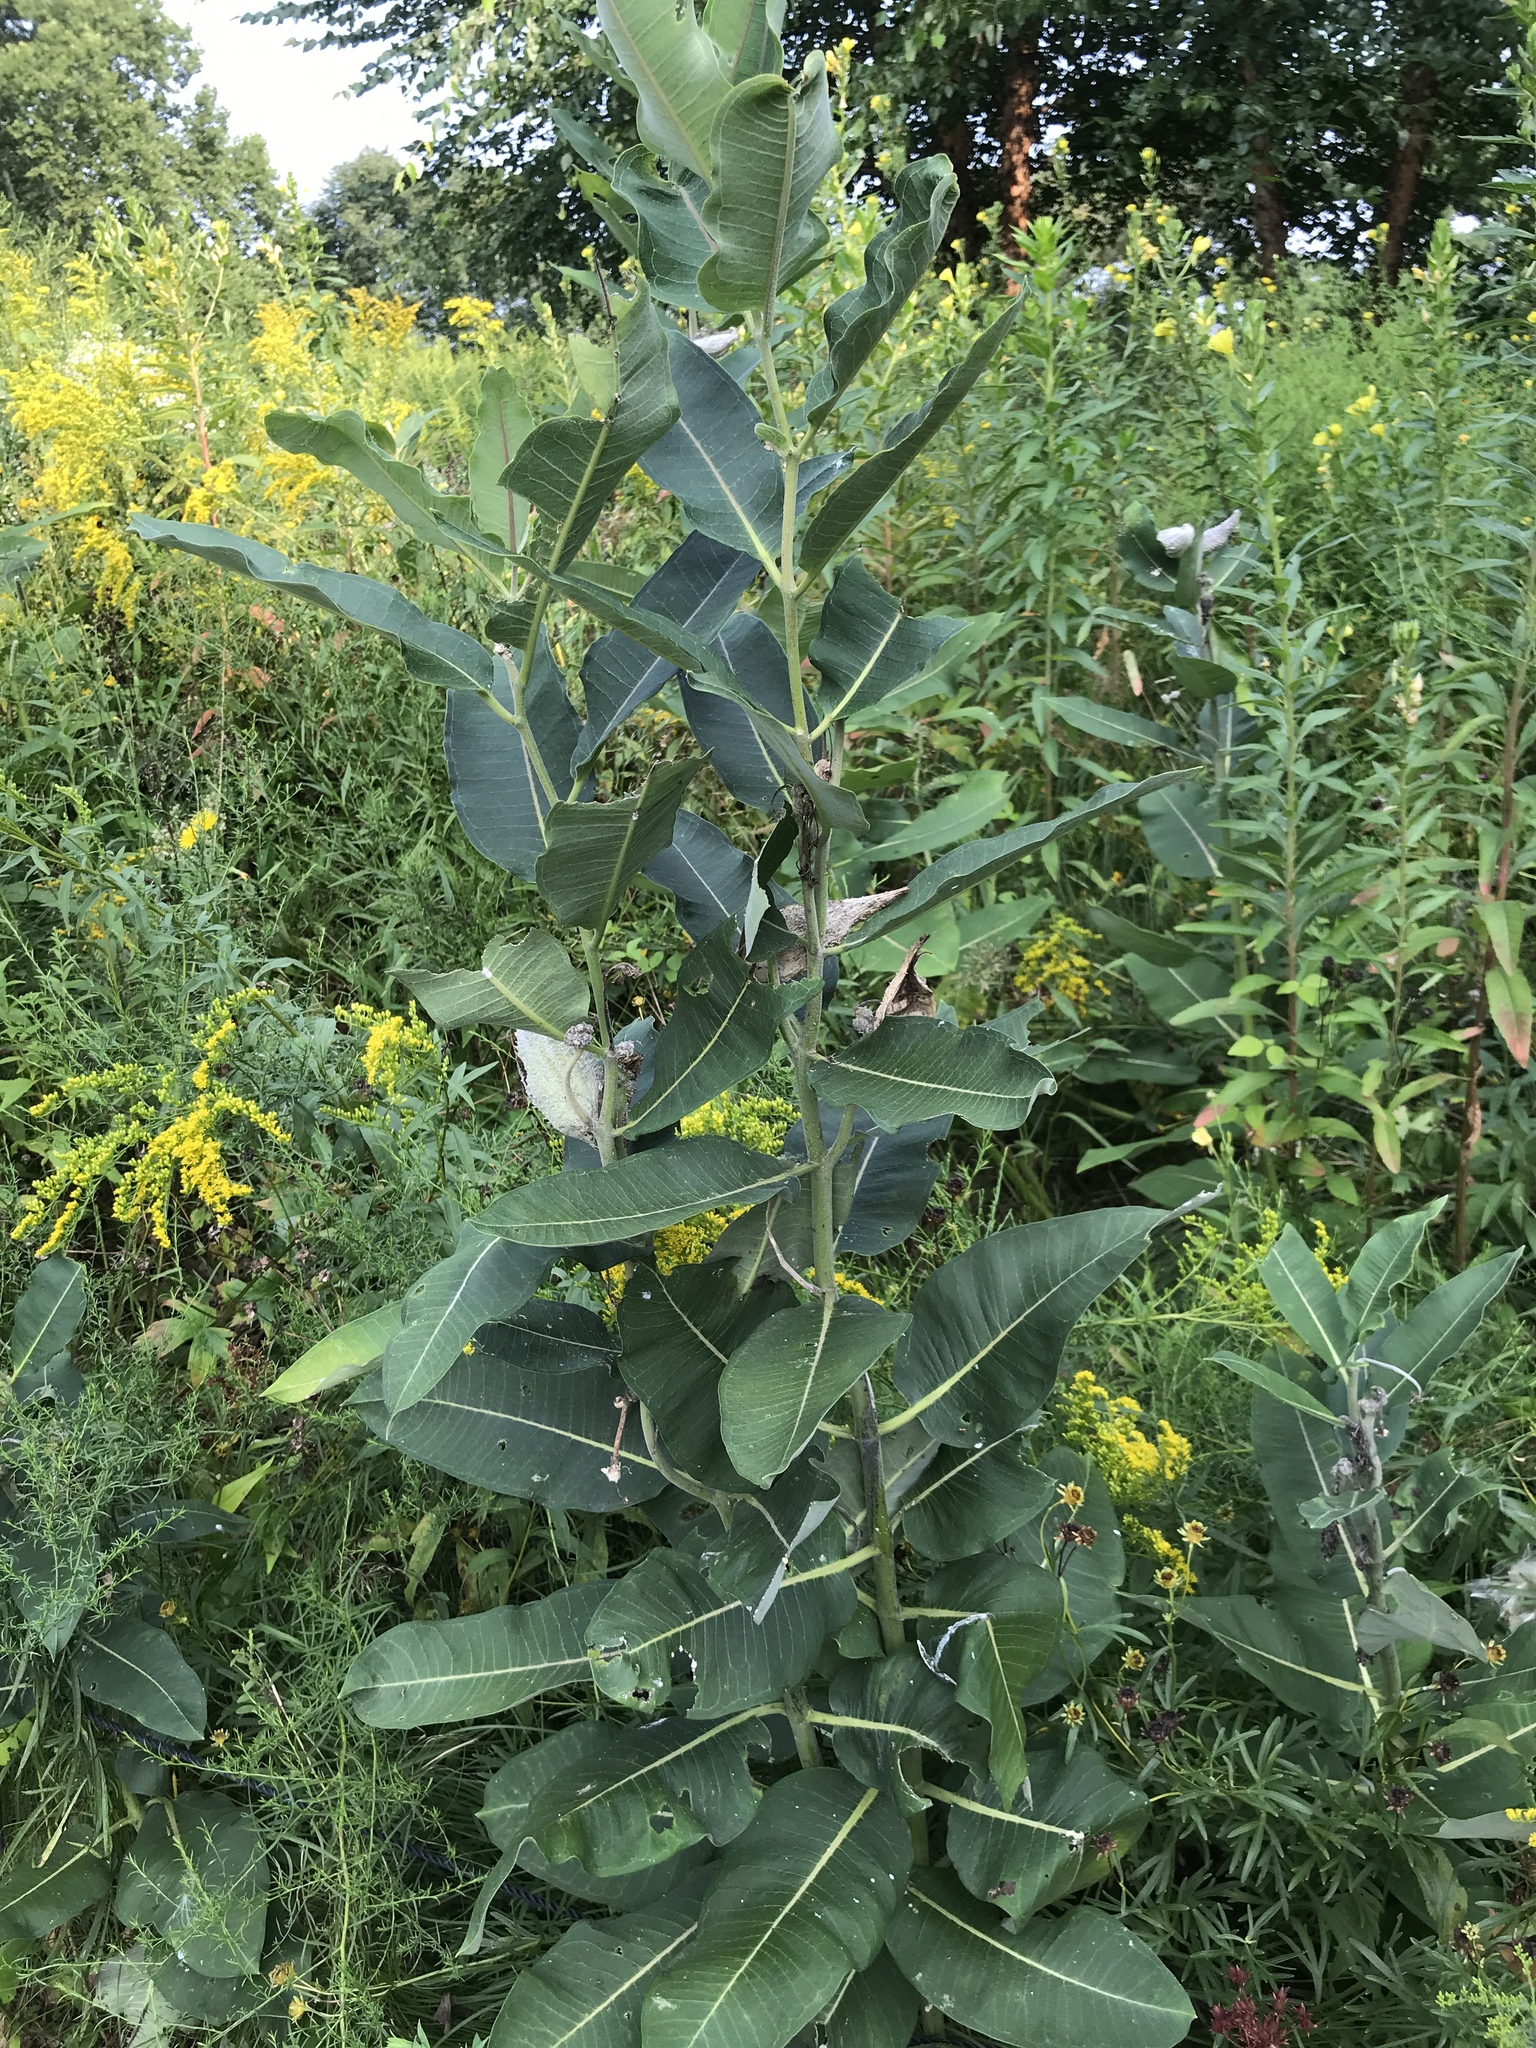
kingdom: Plantae
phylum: Tracheophyta
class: Magnoliopsida
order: Gentianales
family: Apocynaceae
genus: Asclepias
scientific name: Asclepias syriaca
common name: Common milkweed
